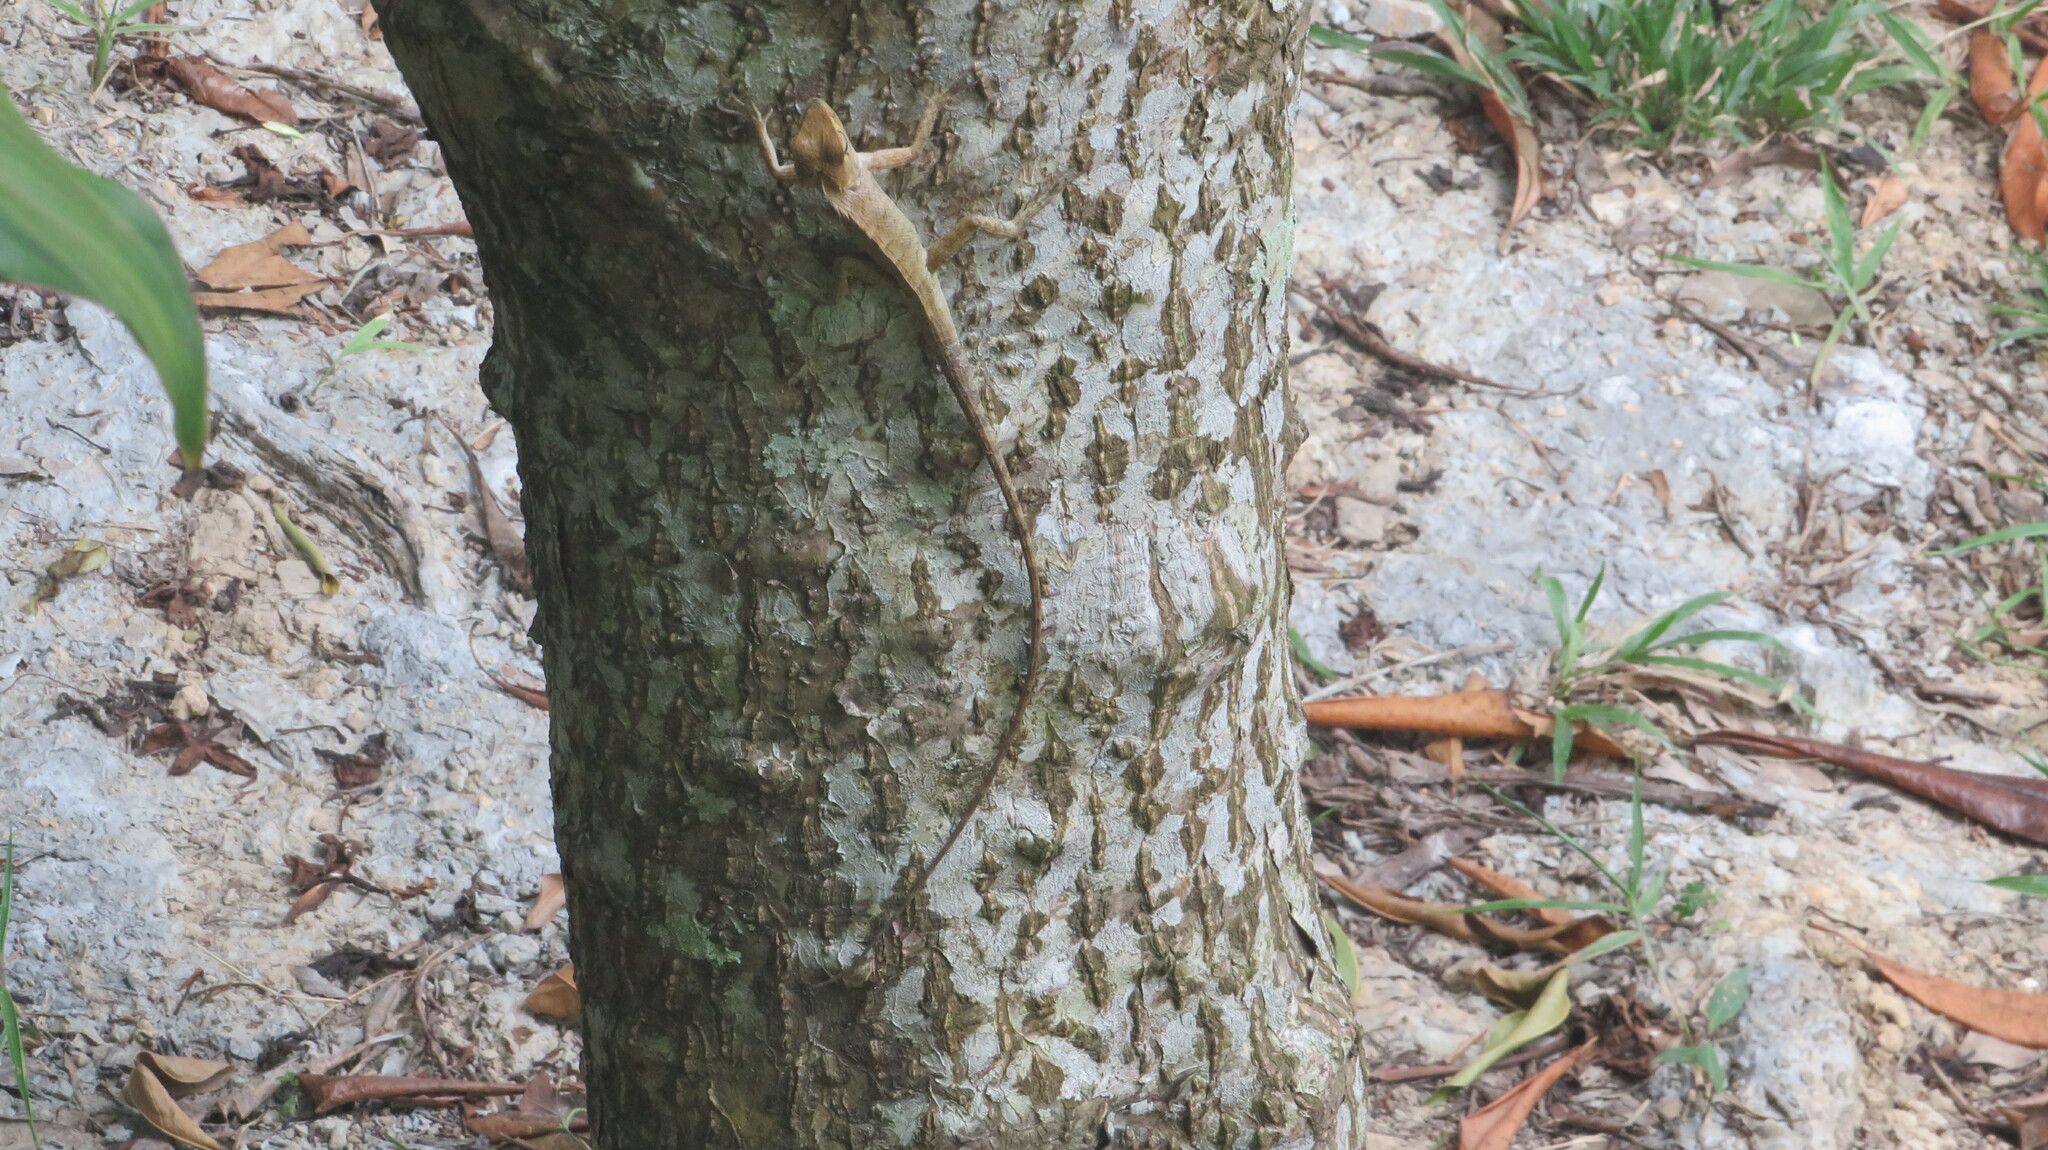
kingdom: Animalia
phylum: Chordata
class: Squamata
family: Agamidae
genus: Calotes
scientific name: Calotes versicolor
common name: Oriental garden lizard
